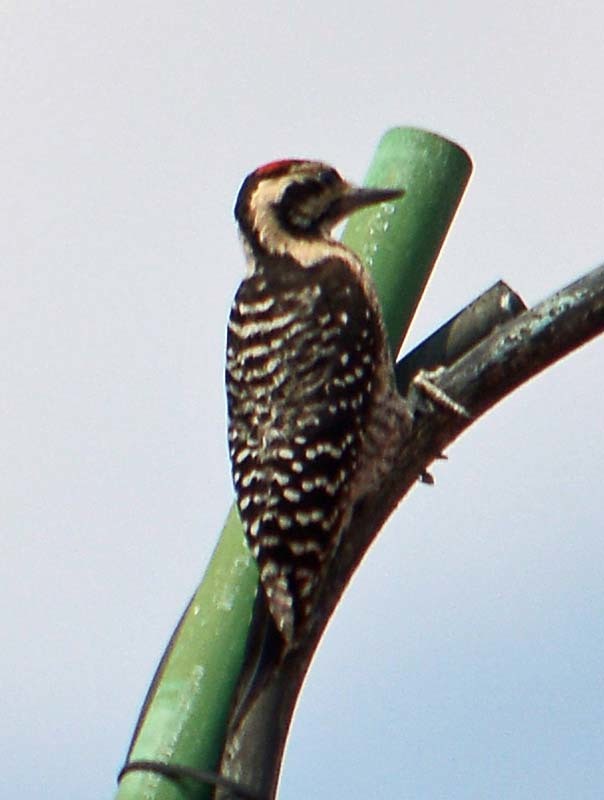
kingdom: Animalia
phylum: Chordata
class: Aves
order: Piciformes
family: Picidae
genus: Dryobates
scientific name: Dryobates scalaris
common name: Ladder-backed woodpecker
